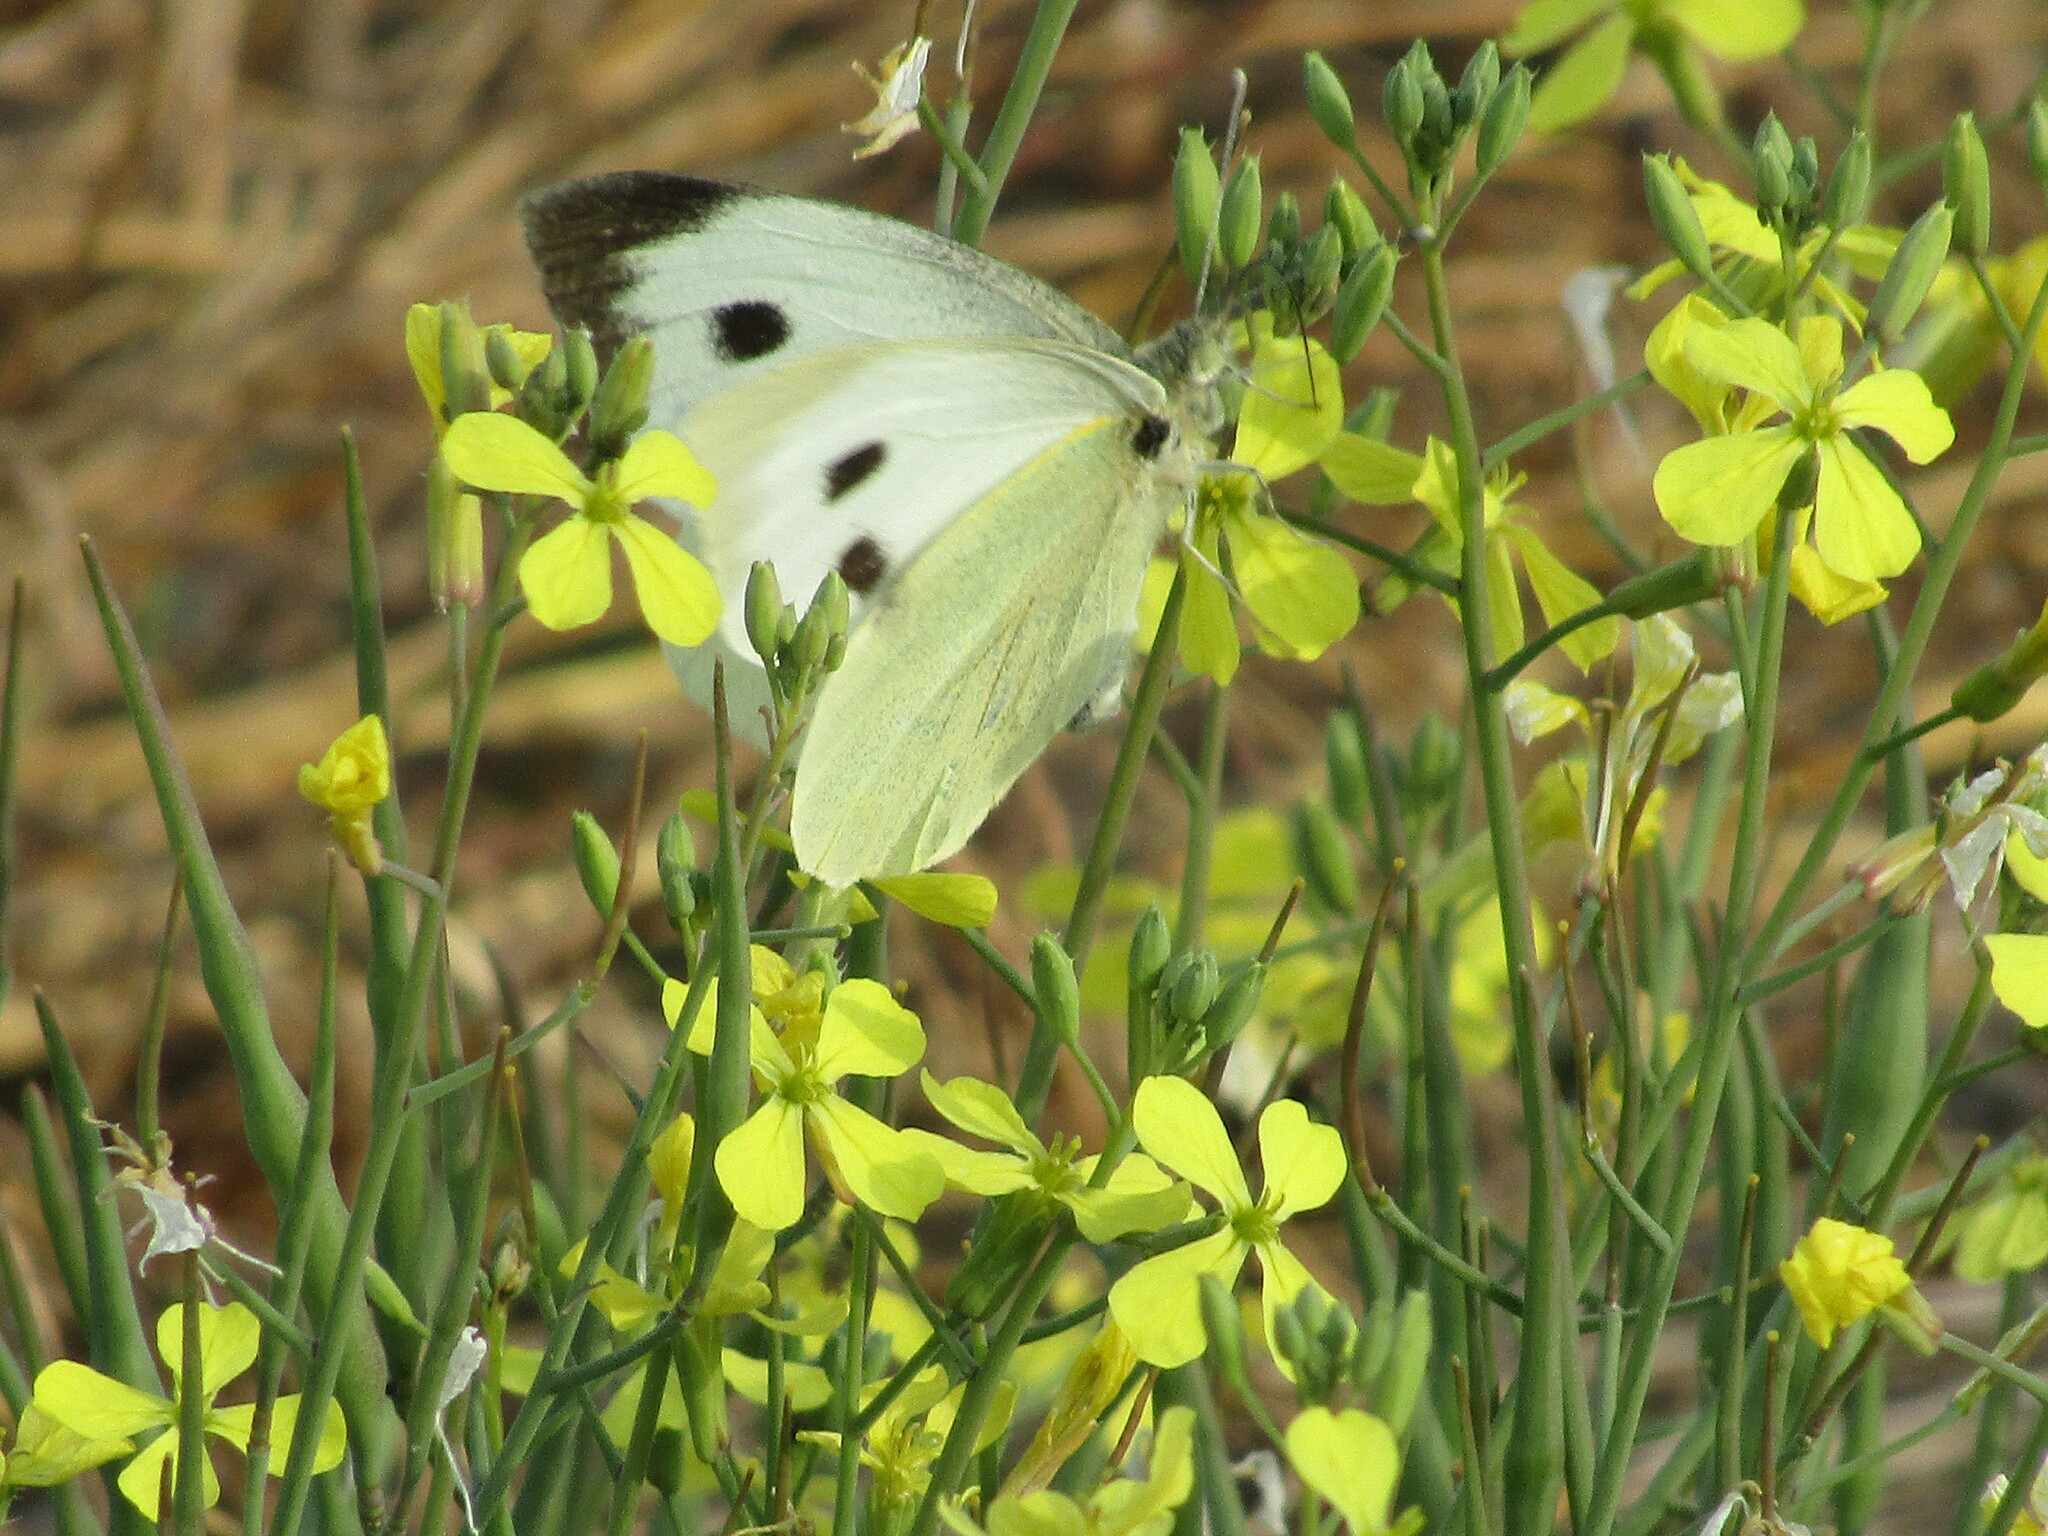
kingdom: Animalia
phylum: Arthropoda
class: Insecta
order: Lepidoptera
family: Pieridae
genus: Pieris
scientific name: Pieris brassicae
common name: Large white
